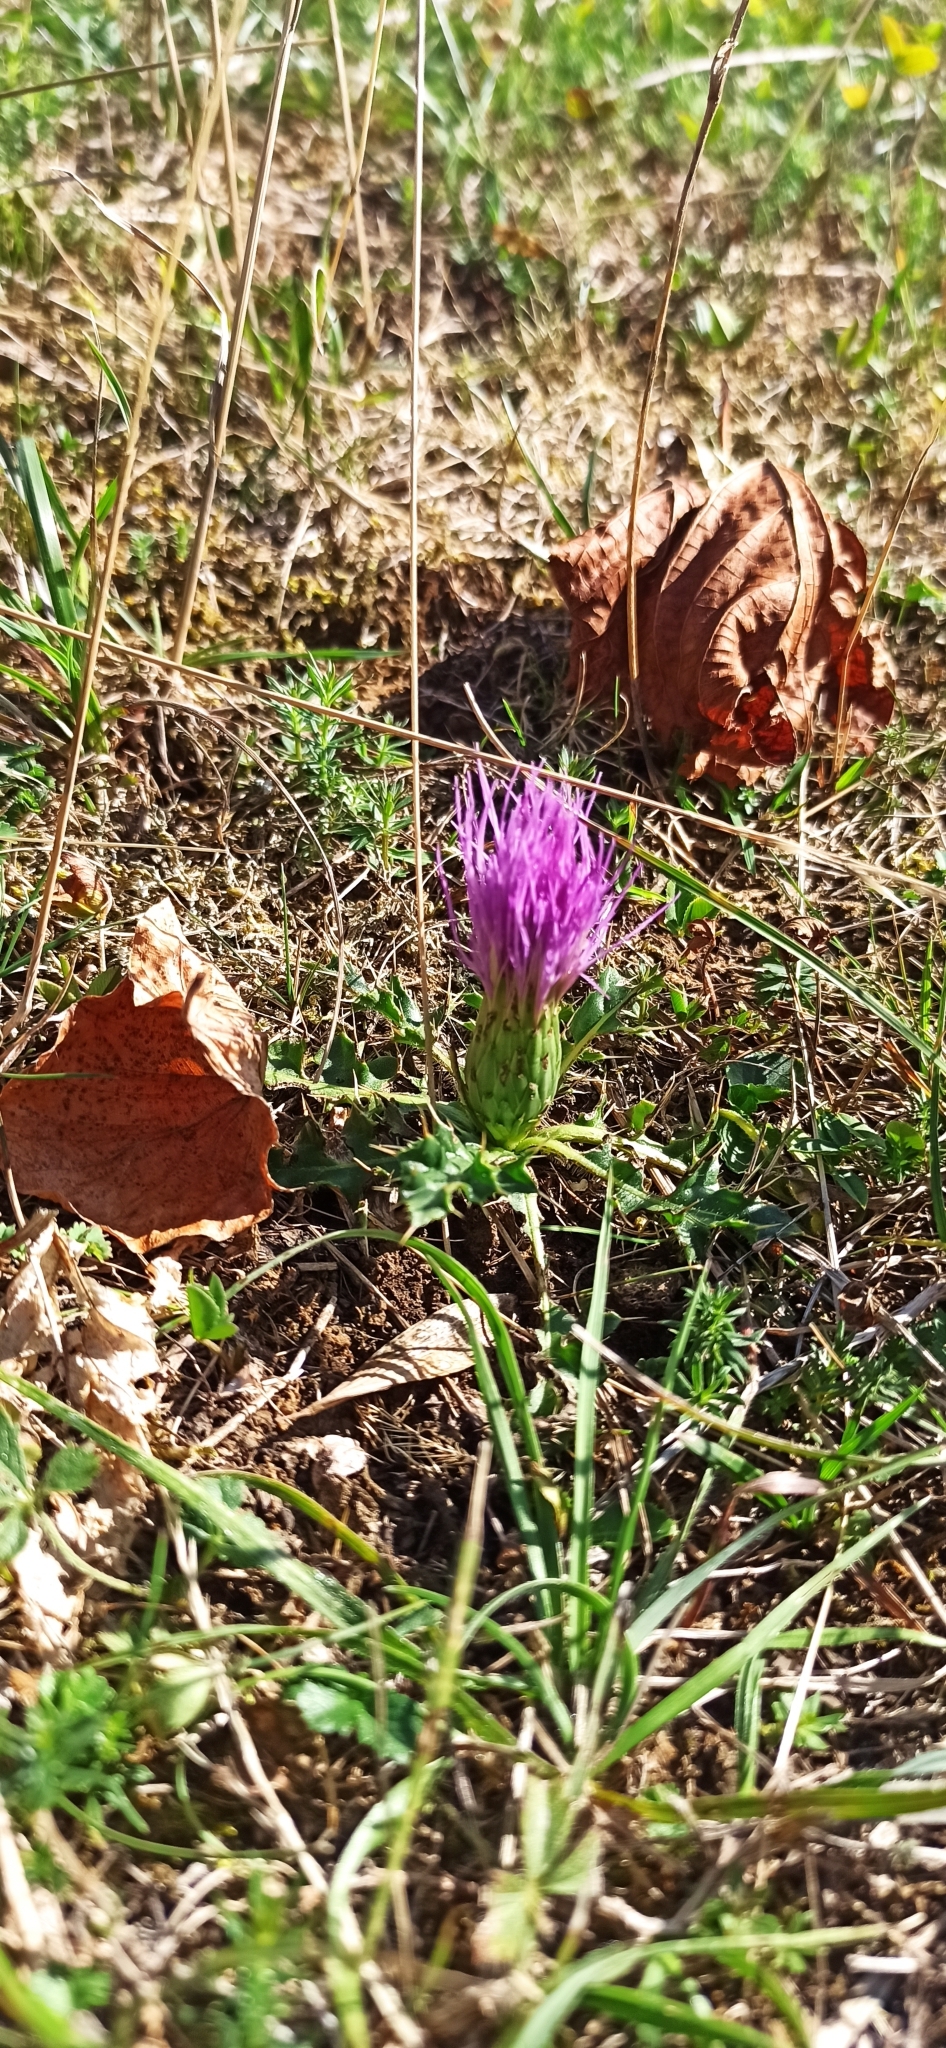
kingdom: Plantae
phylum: Tracheophyta
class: Magnoliopsida
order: Asterales
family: Asteraceae
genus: Cirsium
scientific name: Cirsium acaulon
